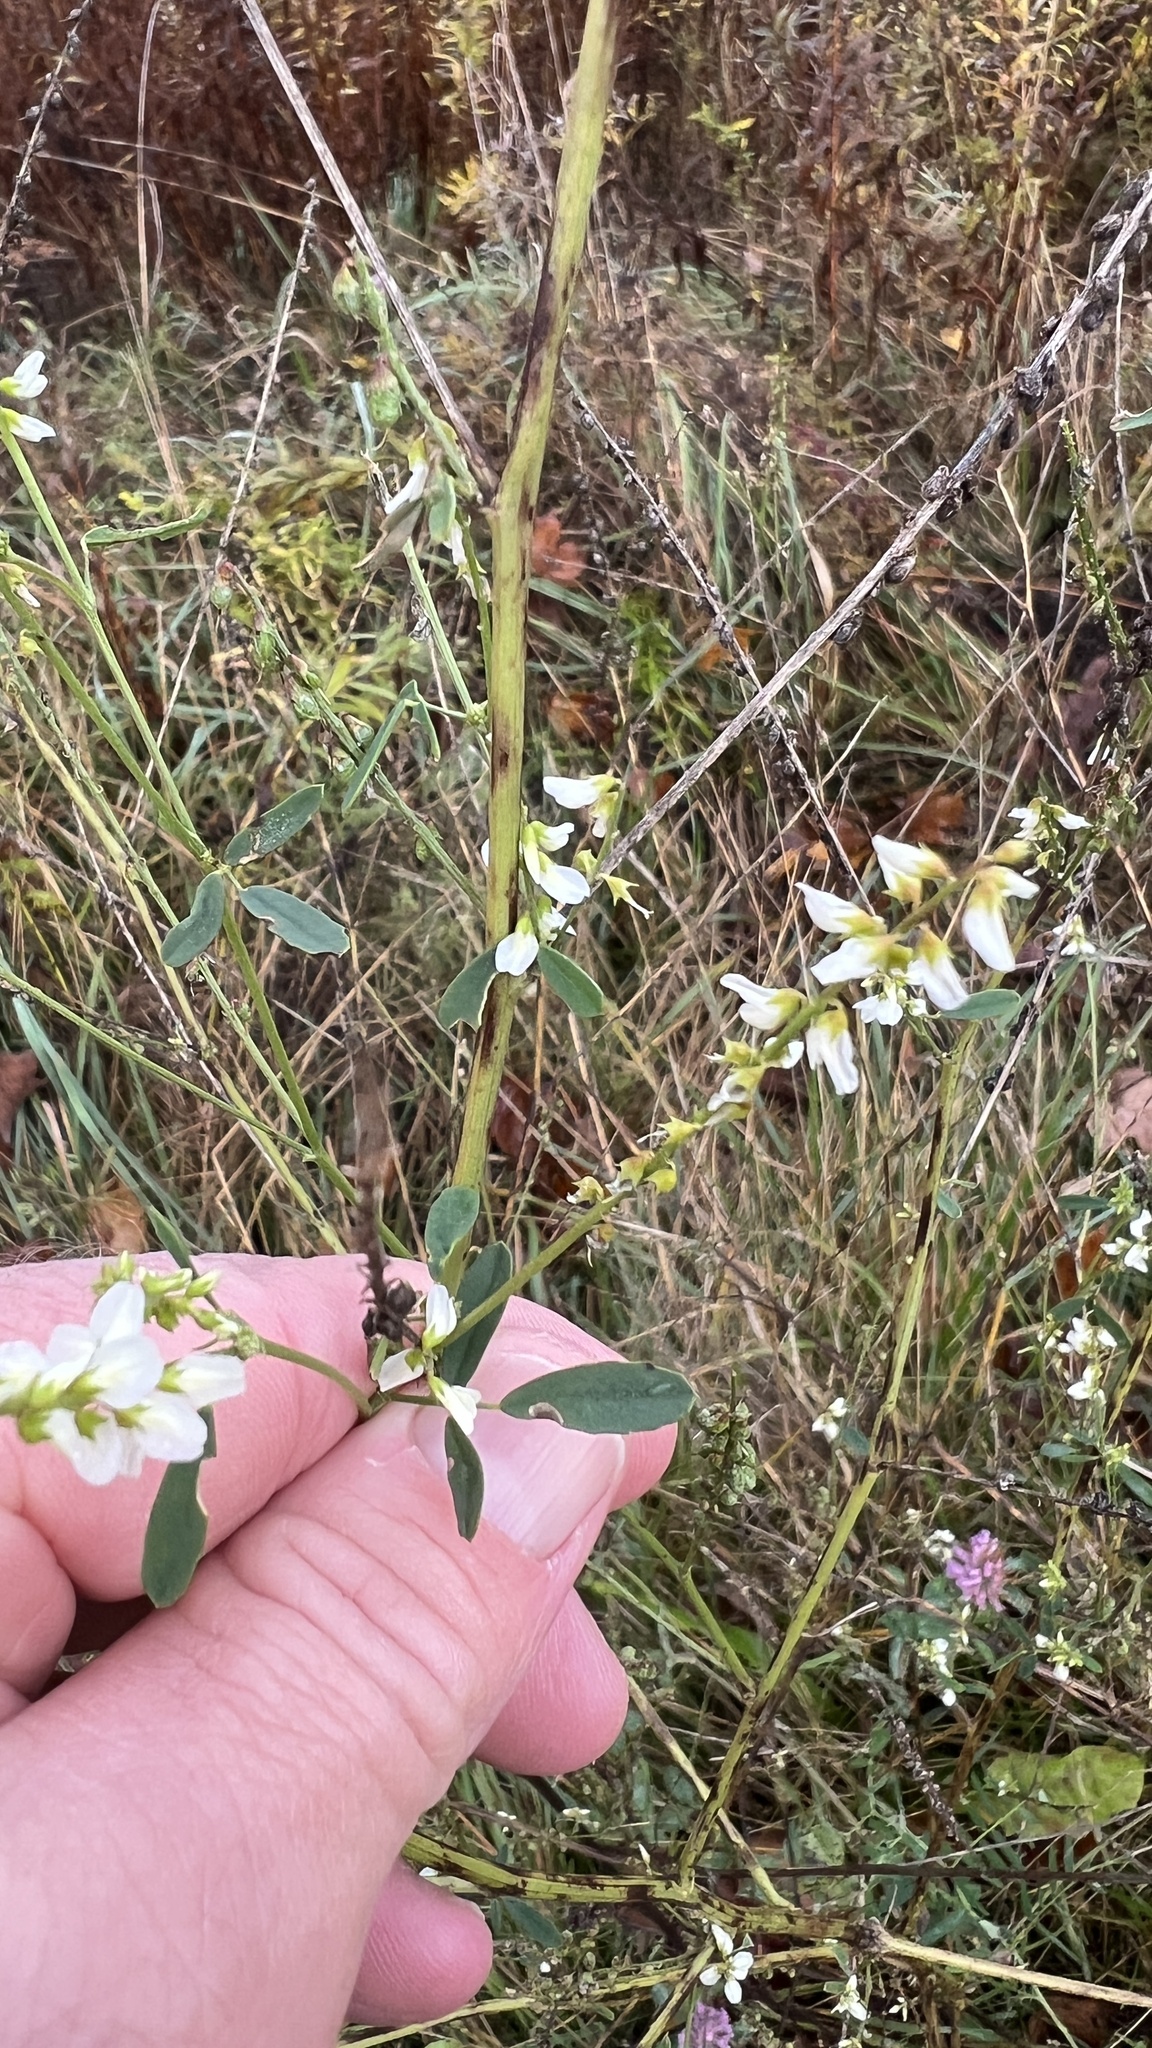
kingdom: Plantae
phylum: Tracheophyta
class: Magnoliopsida
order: Fabales
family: Fabaceae
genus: Melilotus
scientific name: Melilotus albus
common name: White melilot
